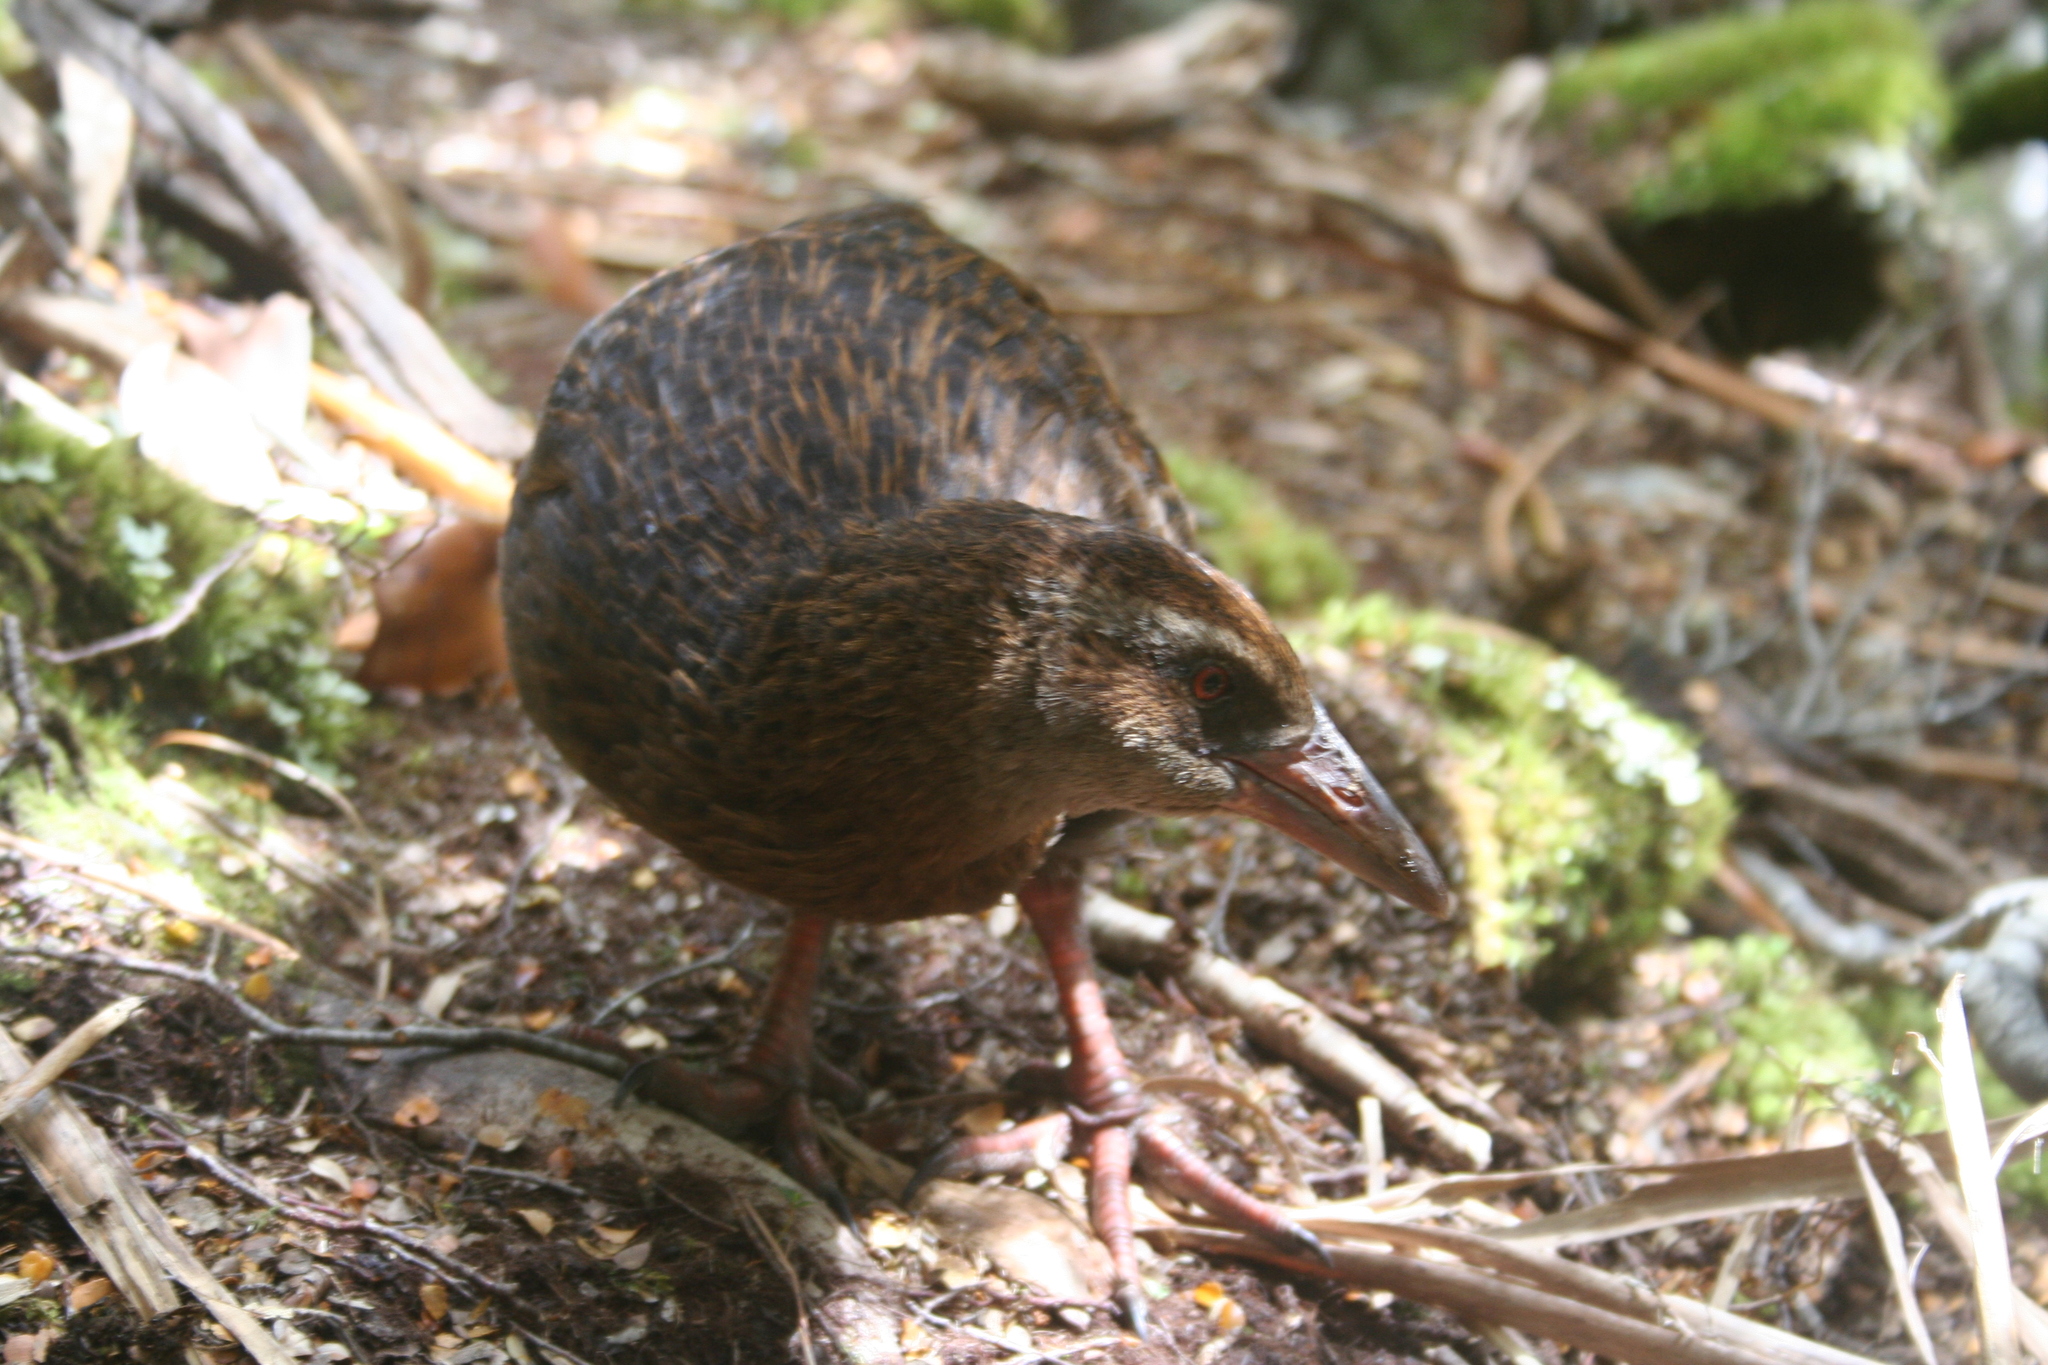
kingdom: Animalia
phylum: Chordata
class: Aves
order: Gruiformes
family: Rallidae
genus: Gallirallus
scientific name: Gallirallus australis
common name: Weka
